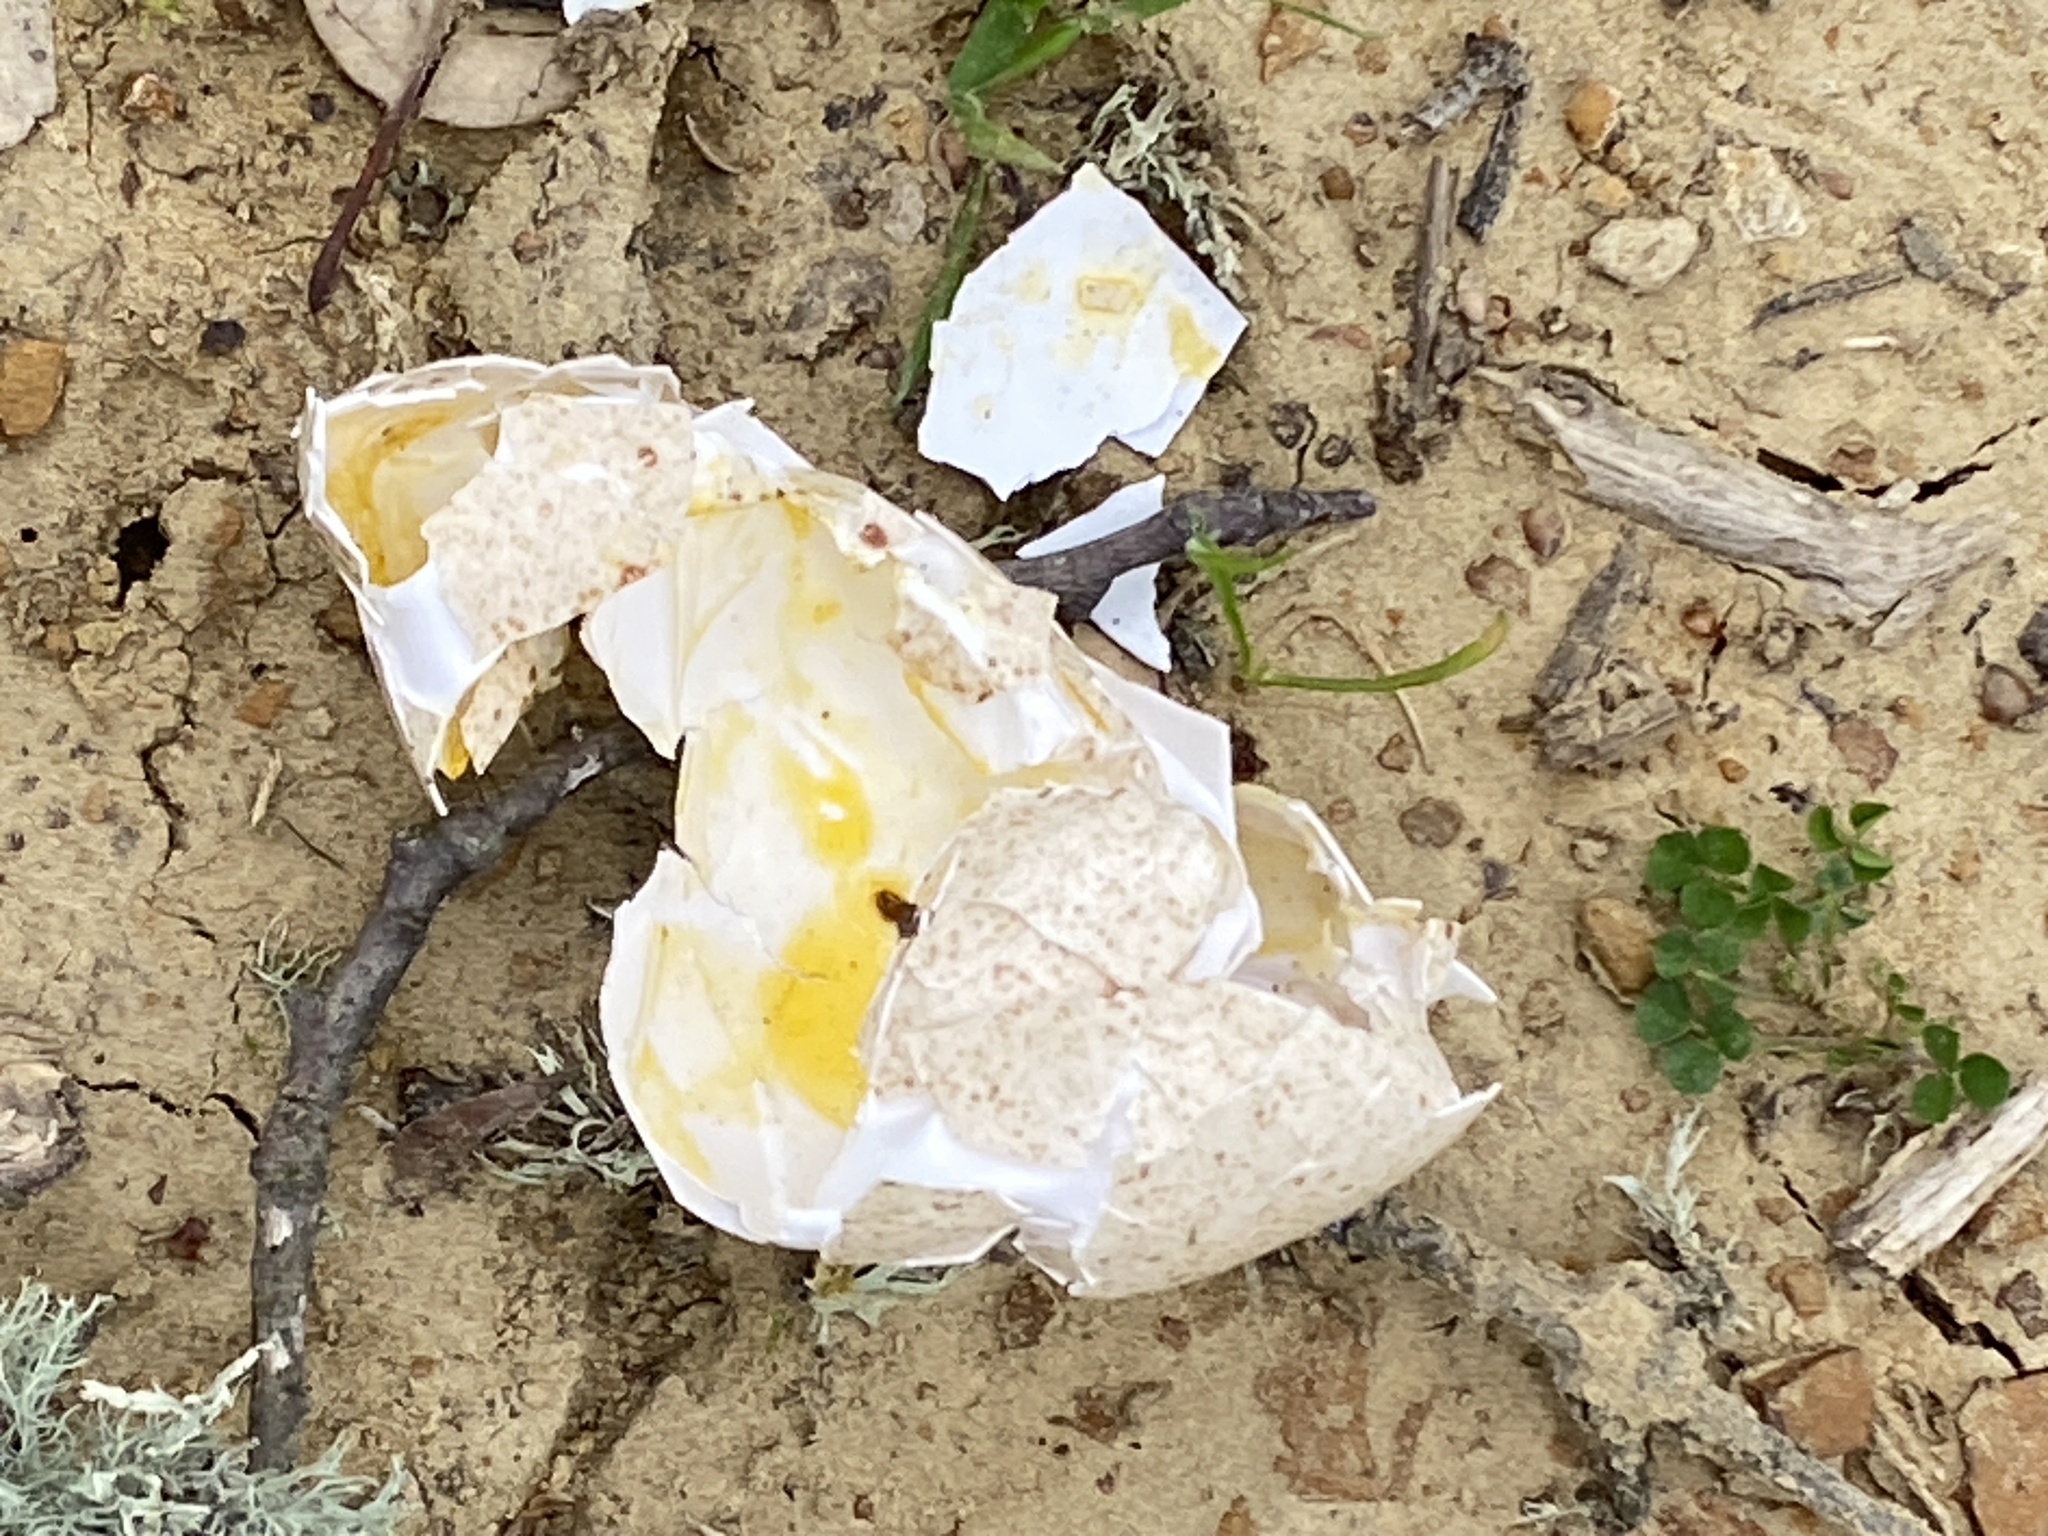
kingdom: Animalia
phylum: Chordata
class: Aves
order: Galliformes
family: Phasianidae
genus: Meleagris
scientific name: Meleagris gallopavo
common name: Wild turkey
